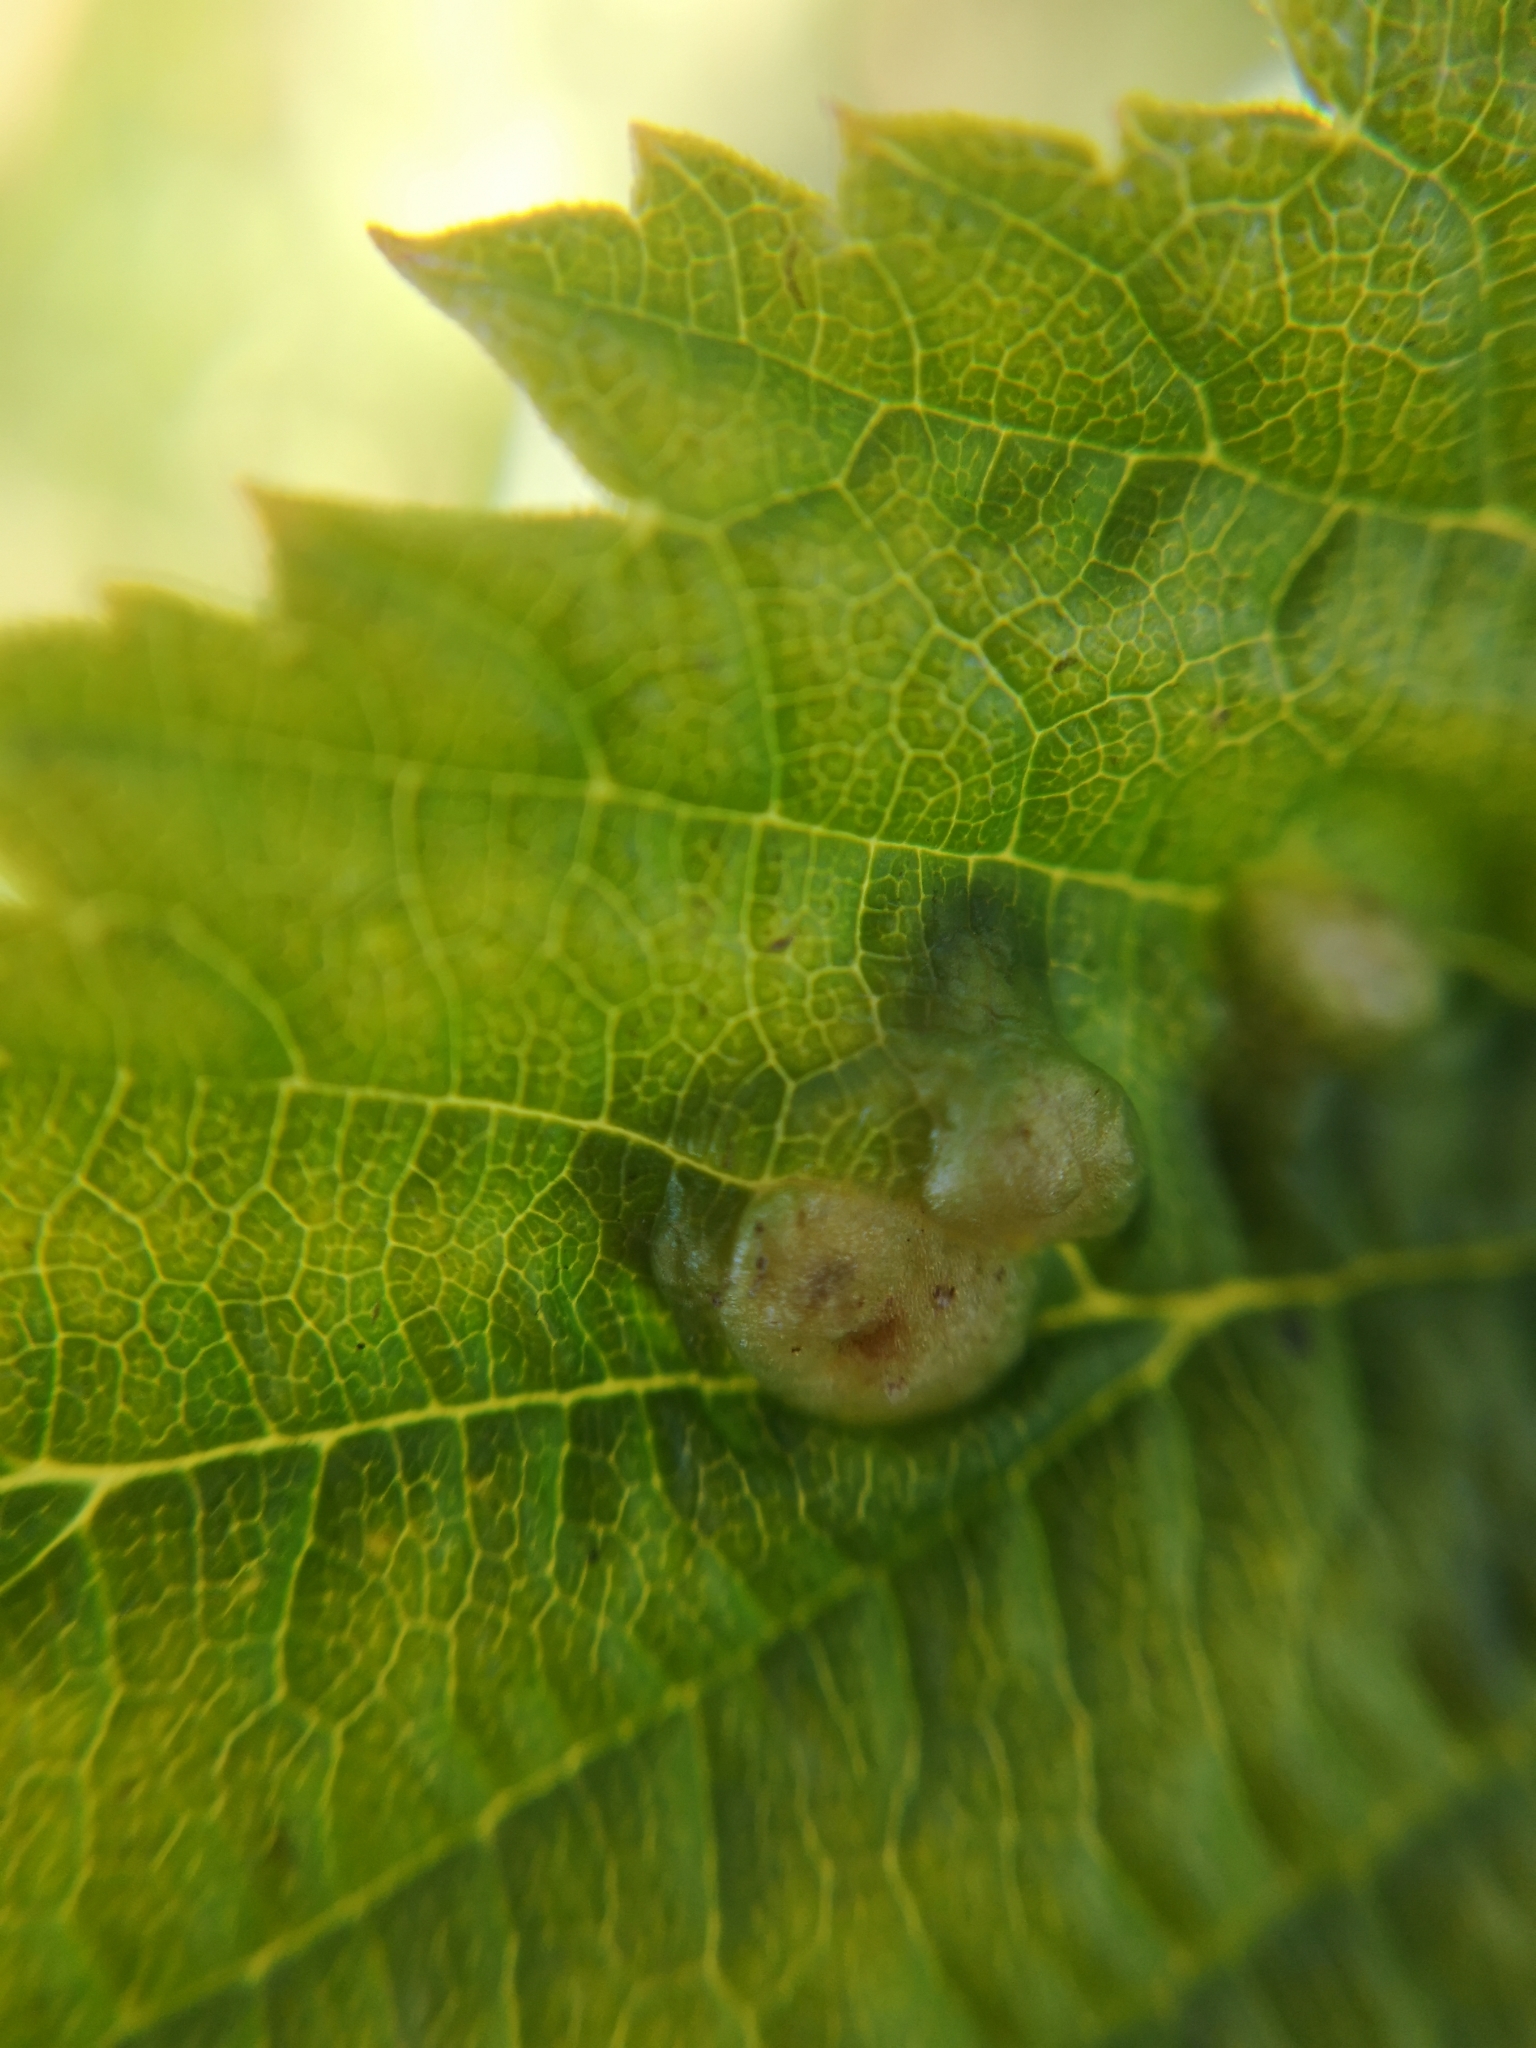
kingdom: Animalia
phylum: Arthropoda
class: Insecta
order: Diptera
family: Cecidomyiidae
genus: Dasineura
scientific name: Dasineura ulmaria
